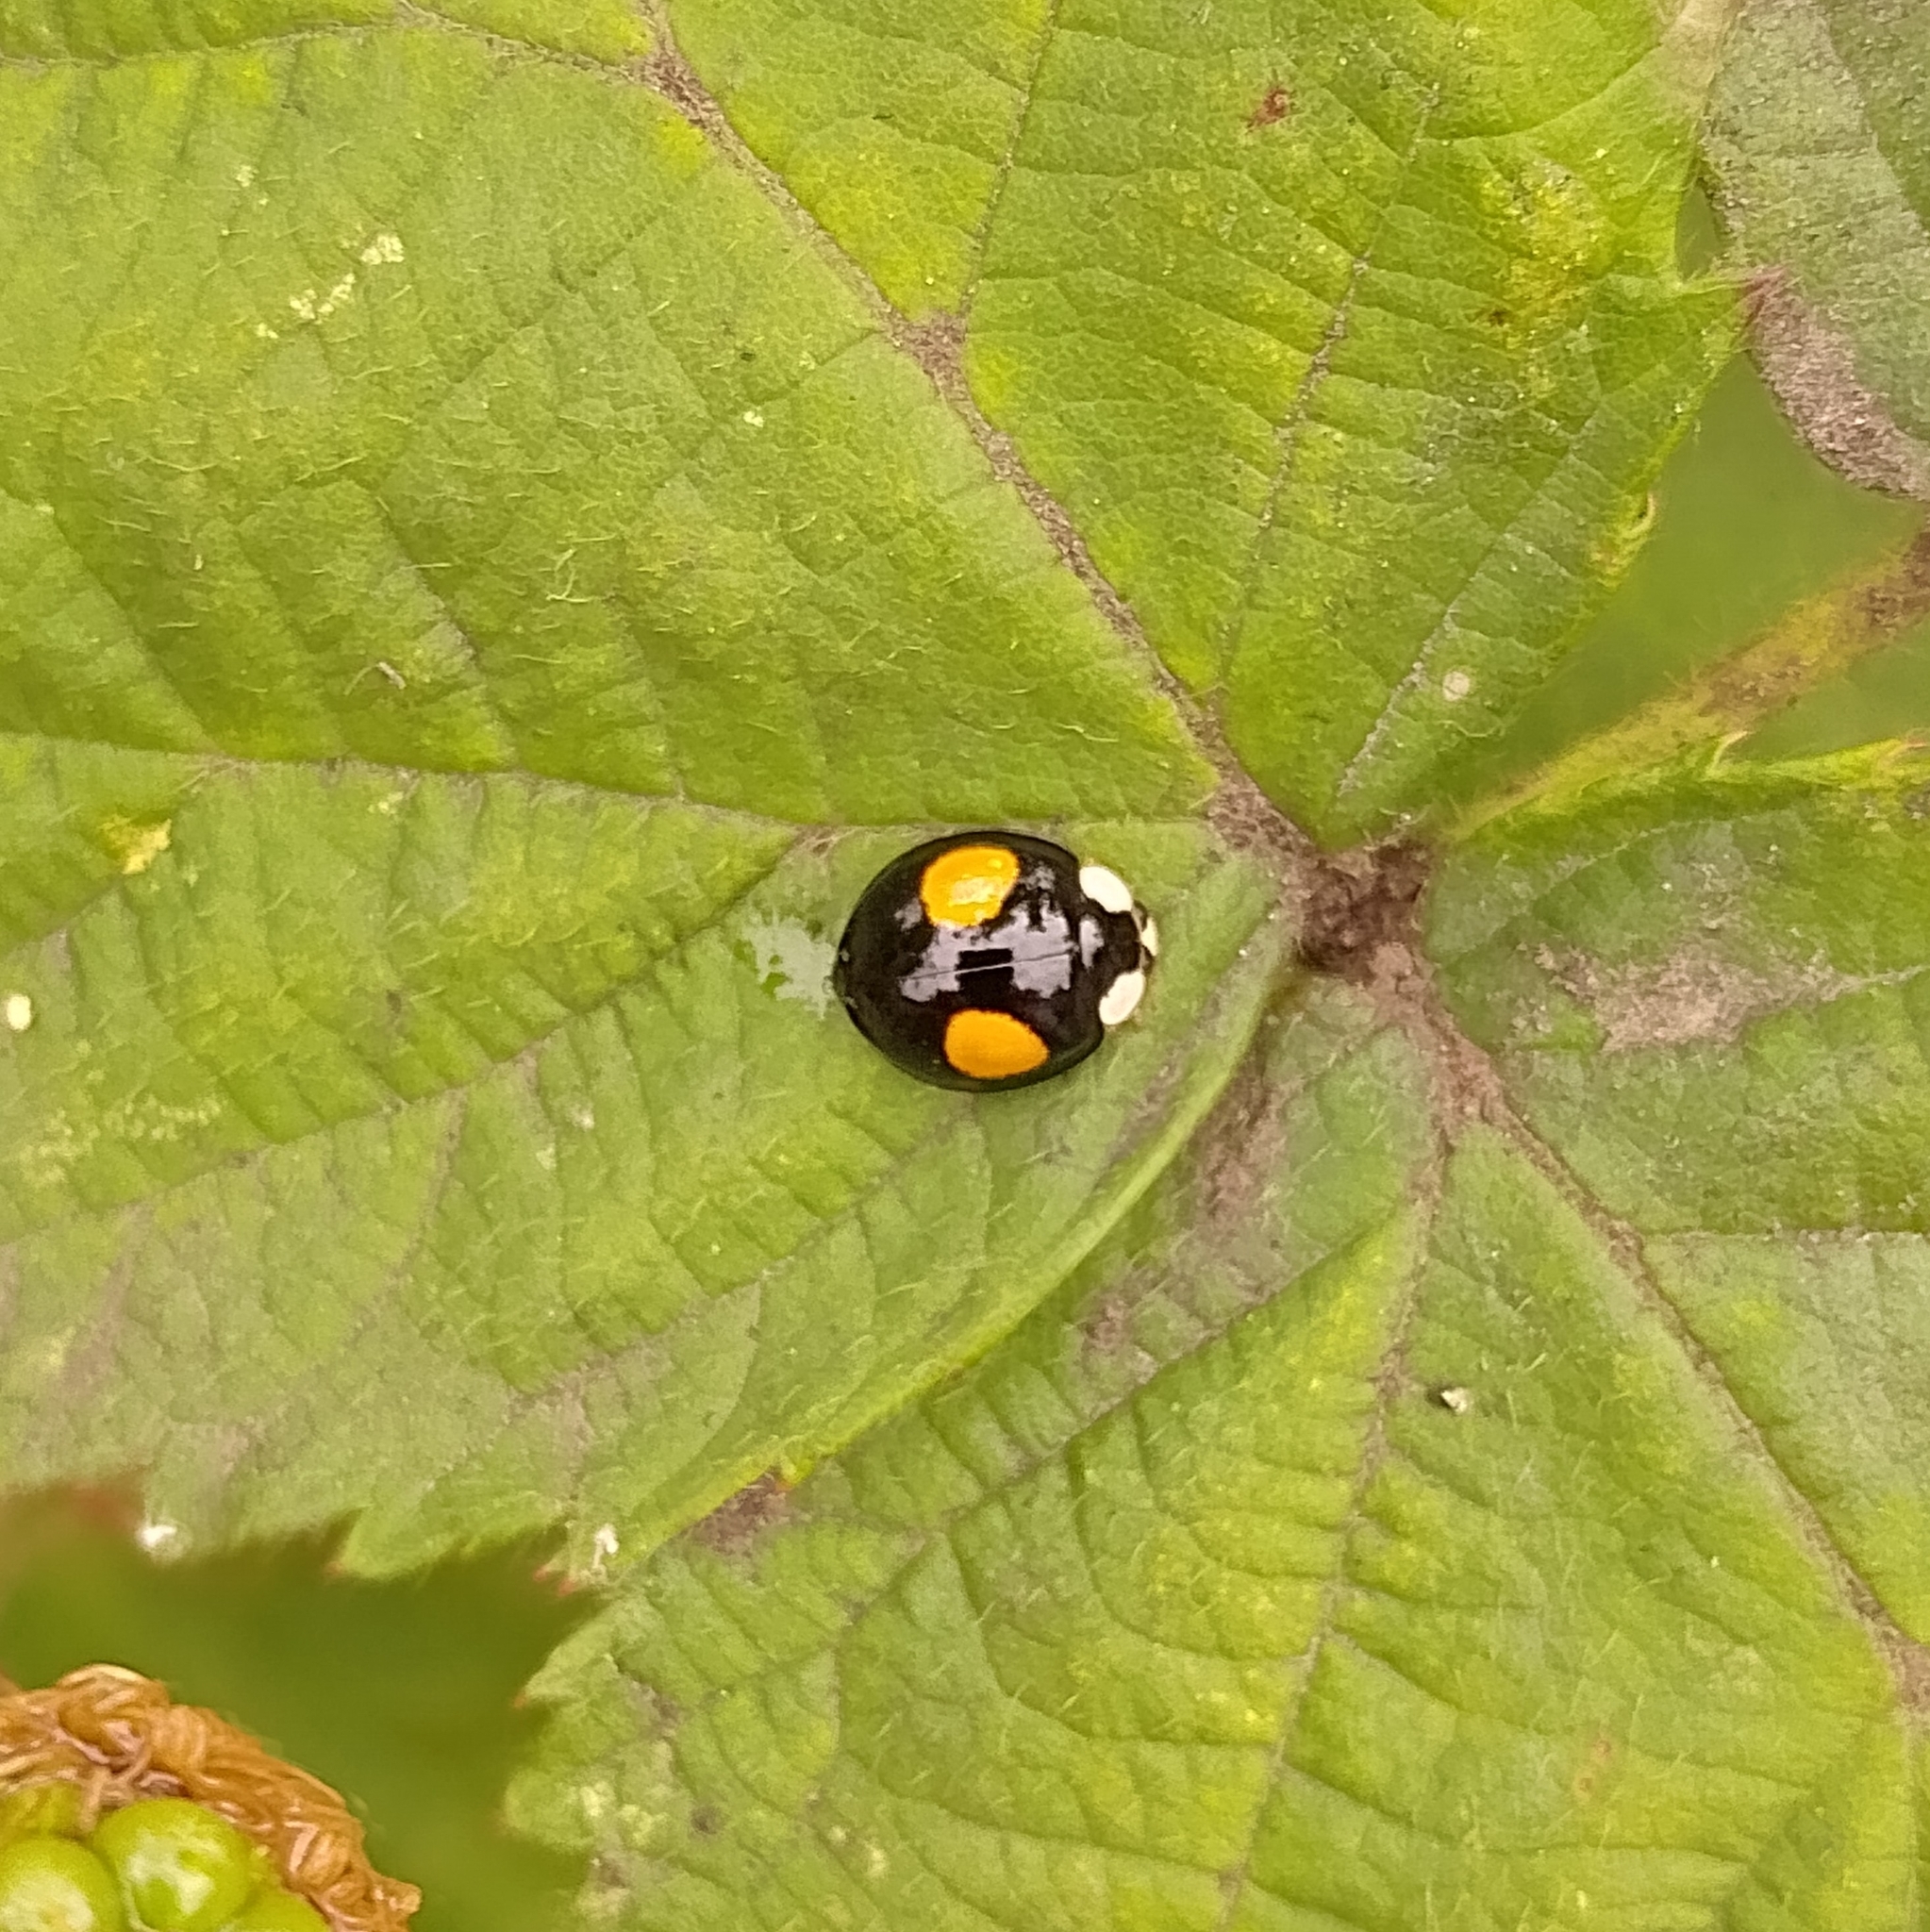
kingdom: Animalia
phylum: Arthropoda
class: Insecta
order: Coleoptera
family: Coccinellidae
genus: Harmonia
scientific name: Harmonia axyridis
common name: Harlequin ladybird
